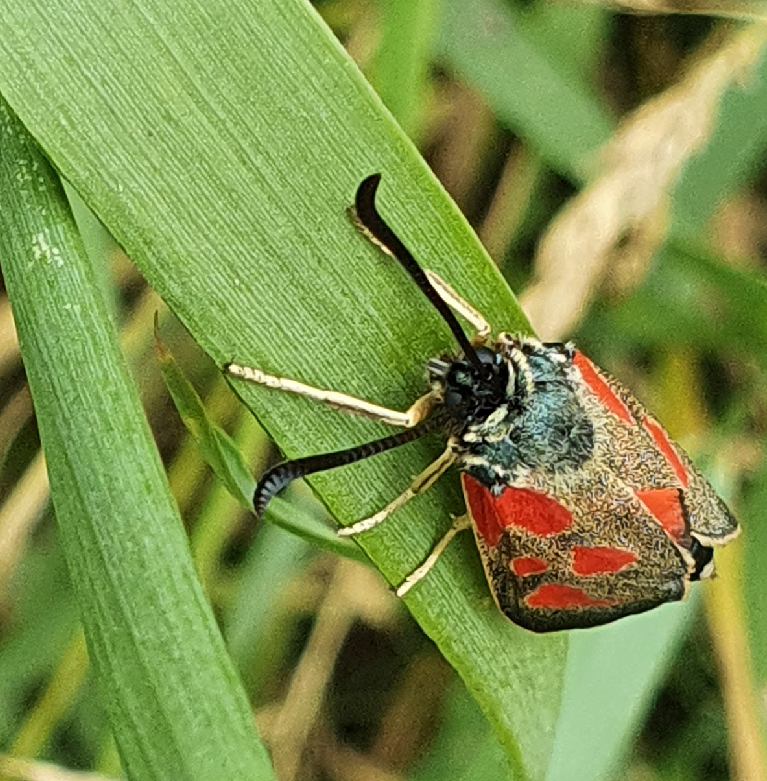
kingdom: Animalia
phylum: Arthropoda
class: Insecta
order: Lepidoptera
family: Zygaenidae
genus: Zygaena
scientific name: Zygaena loti
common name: Slender scotch burnet
